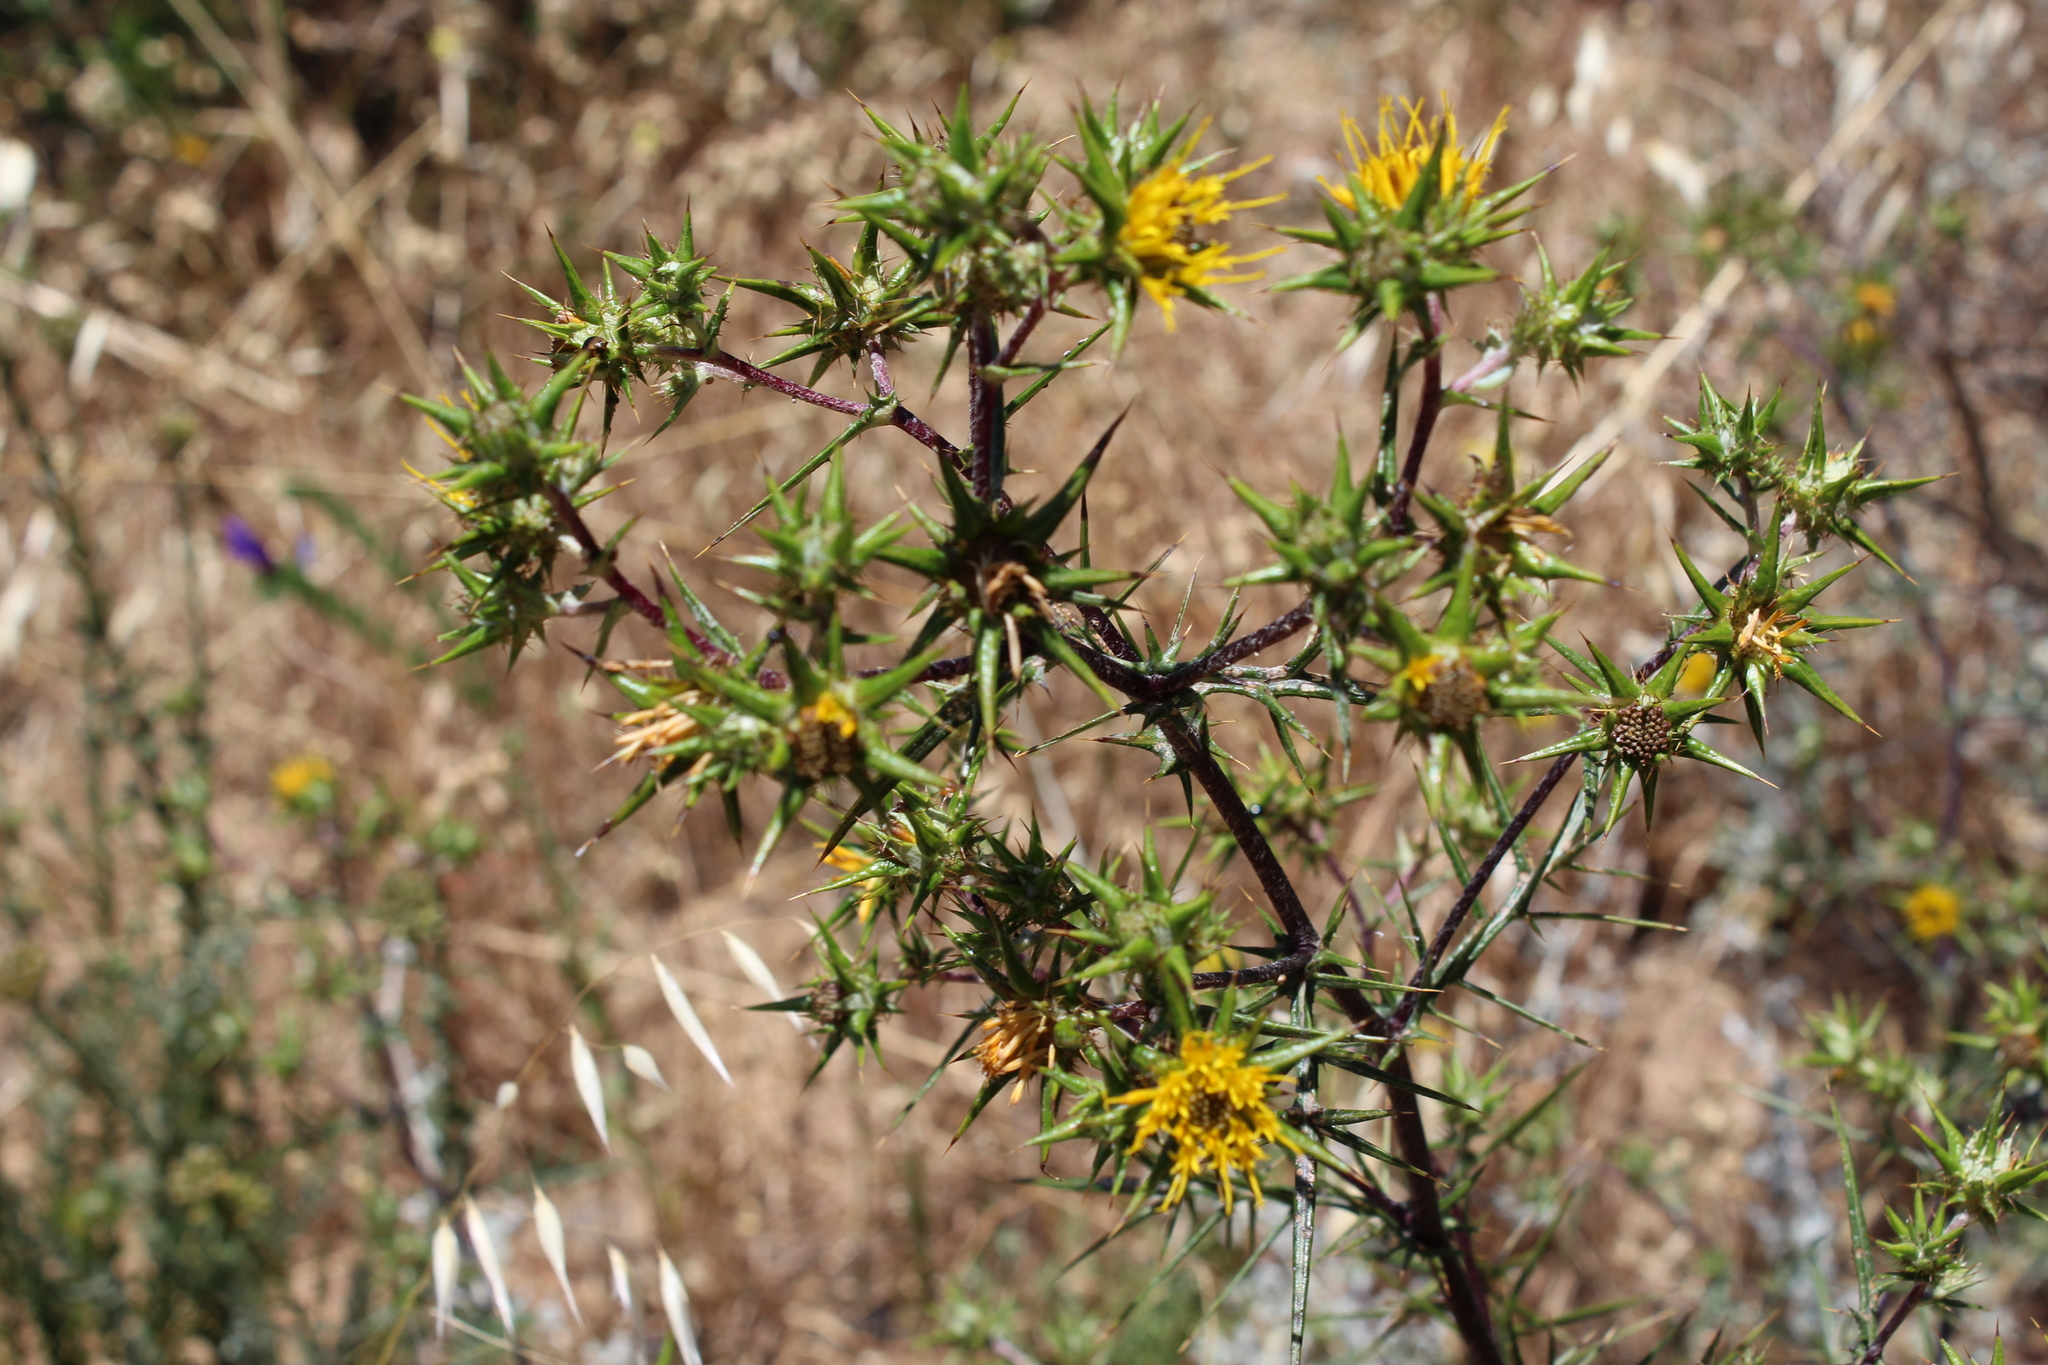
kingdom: Plantae
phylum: Tracheophyta
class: Magnoliopsida
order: Asterales
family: Asteraceae
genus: Berkheya
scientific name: Berkheya rigida
